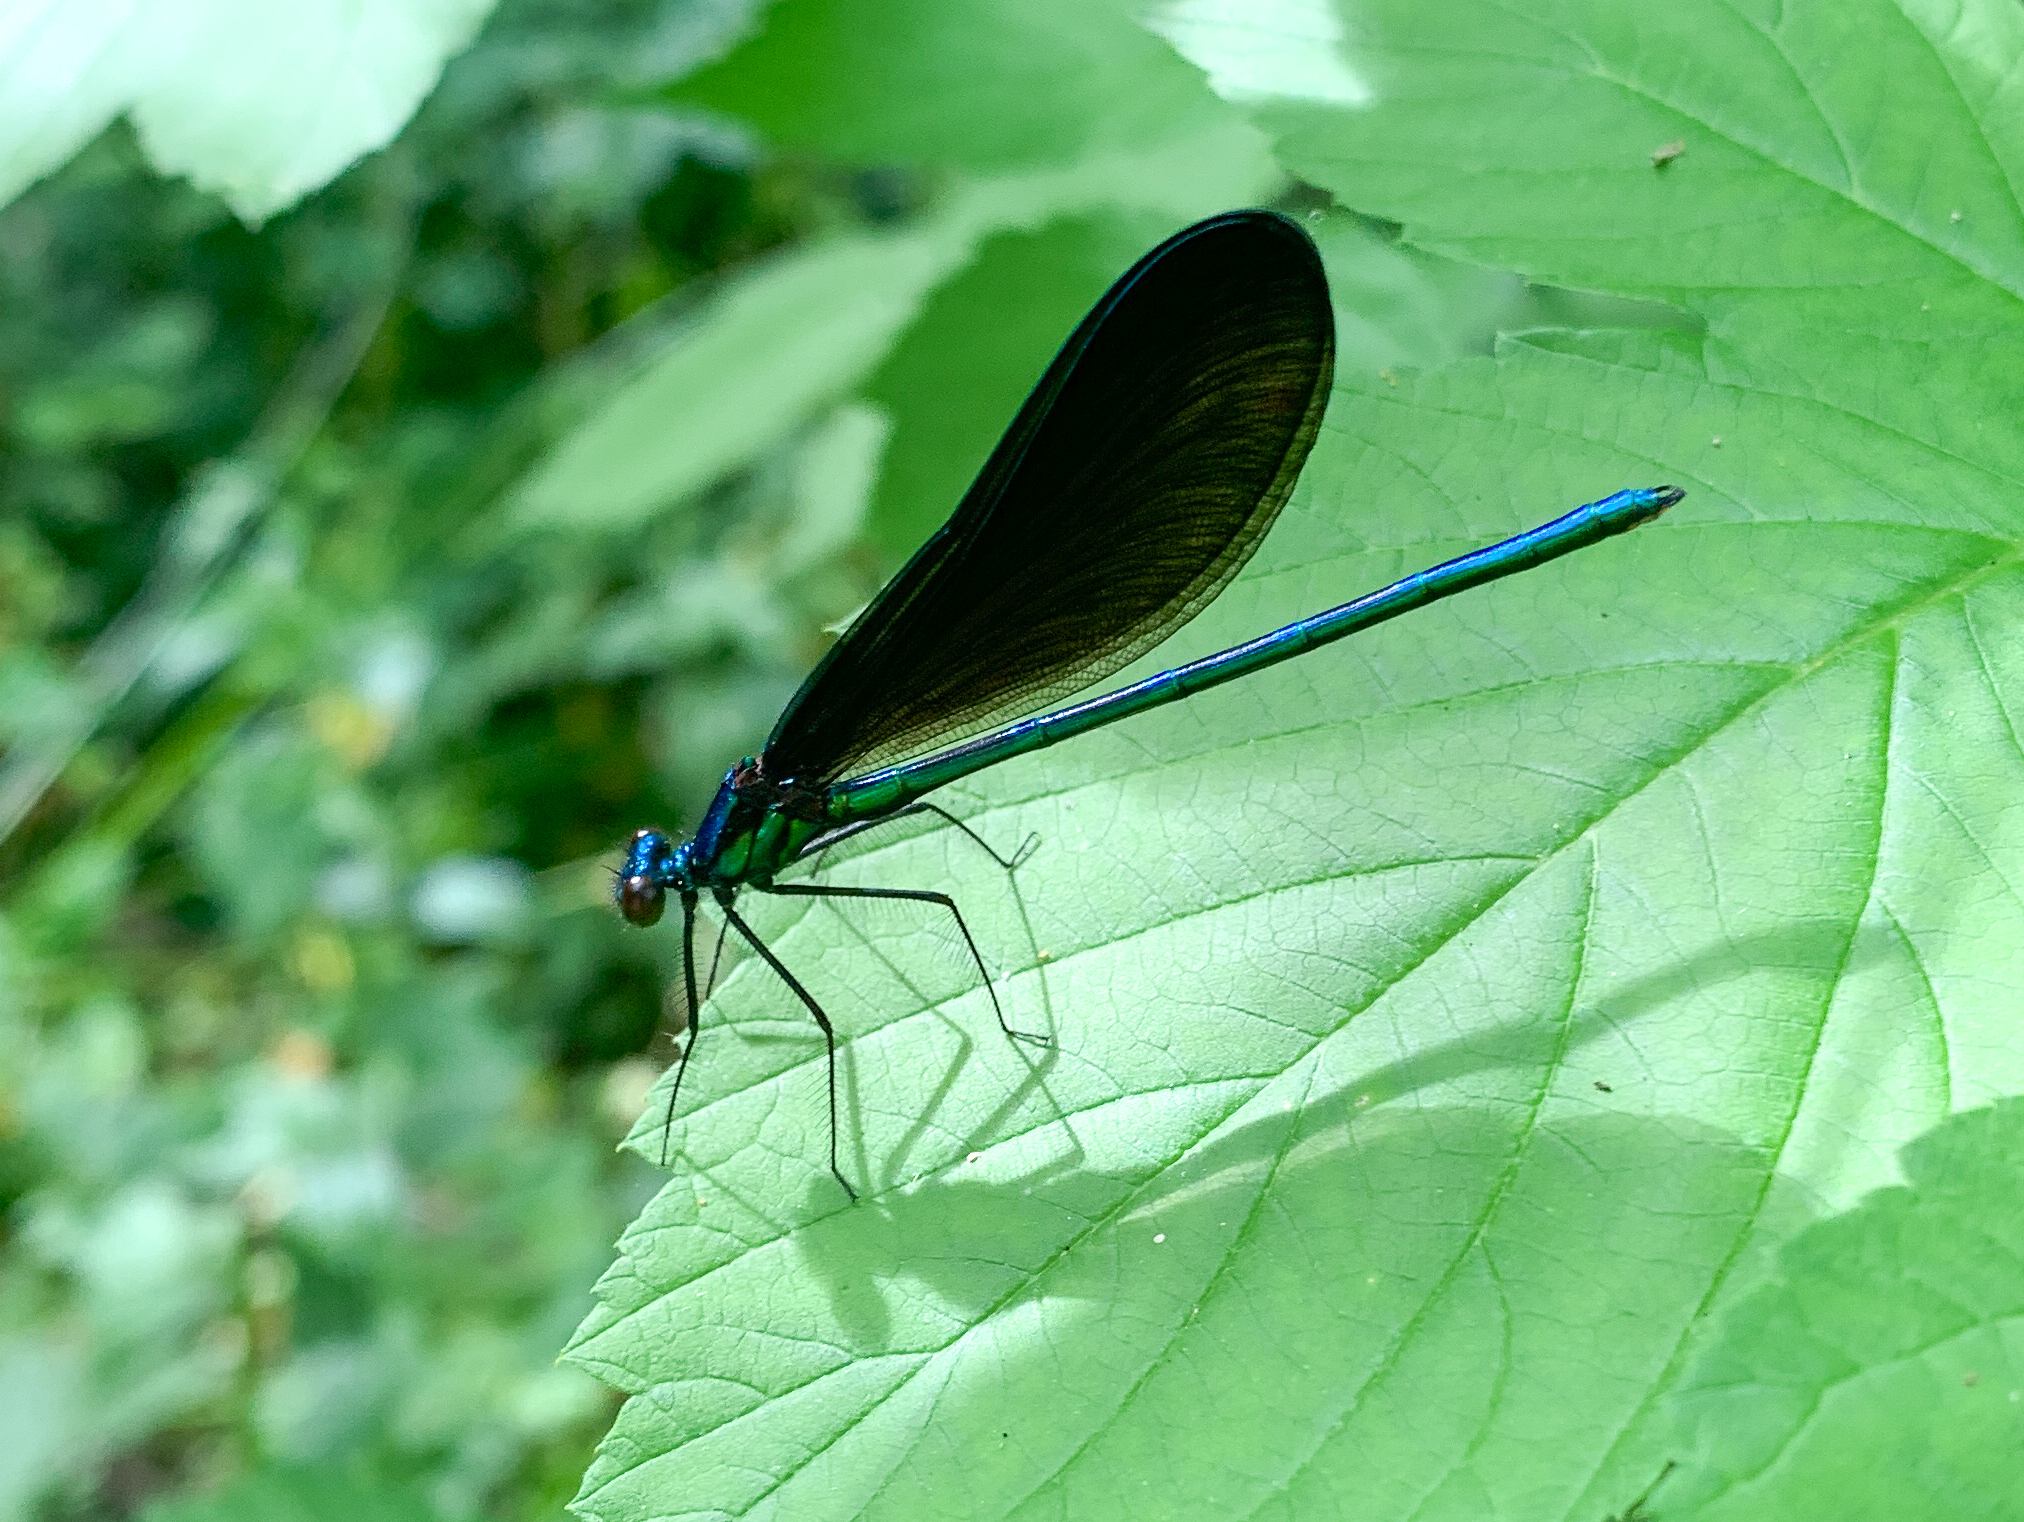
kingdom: Animalia
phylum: Arthropoda
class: Insecta
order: Odonata
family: Calopterygidae
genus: Calopteryx
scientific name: Calopteryx maculata
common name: Ebony jewelwing
